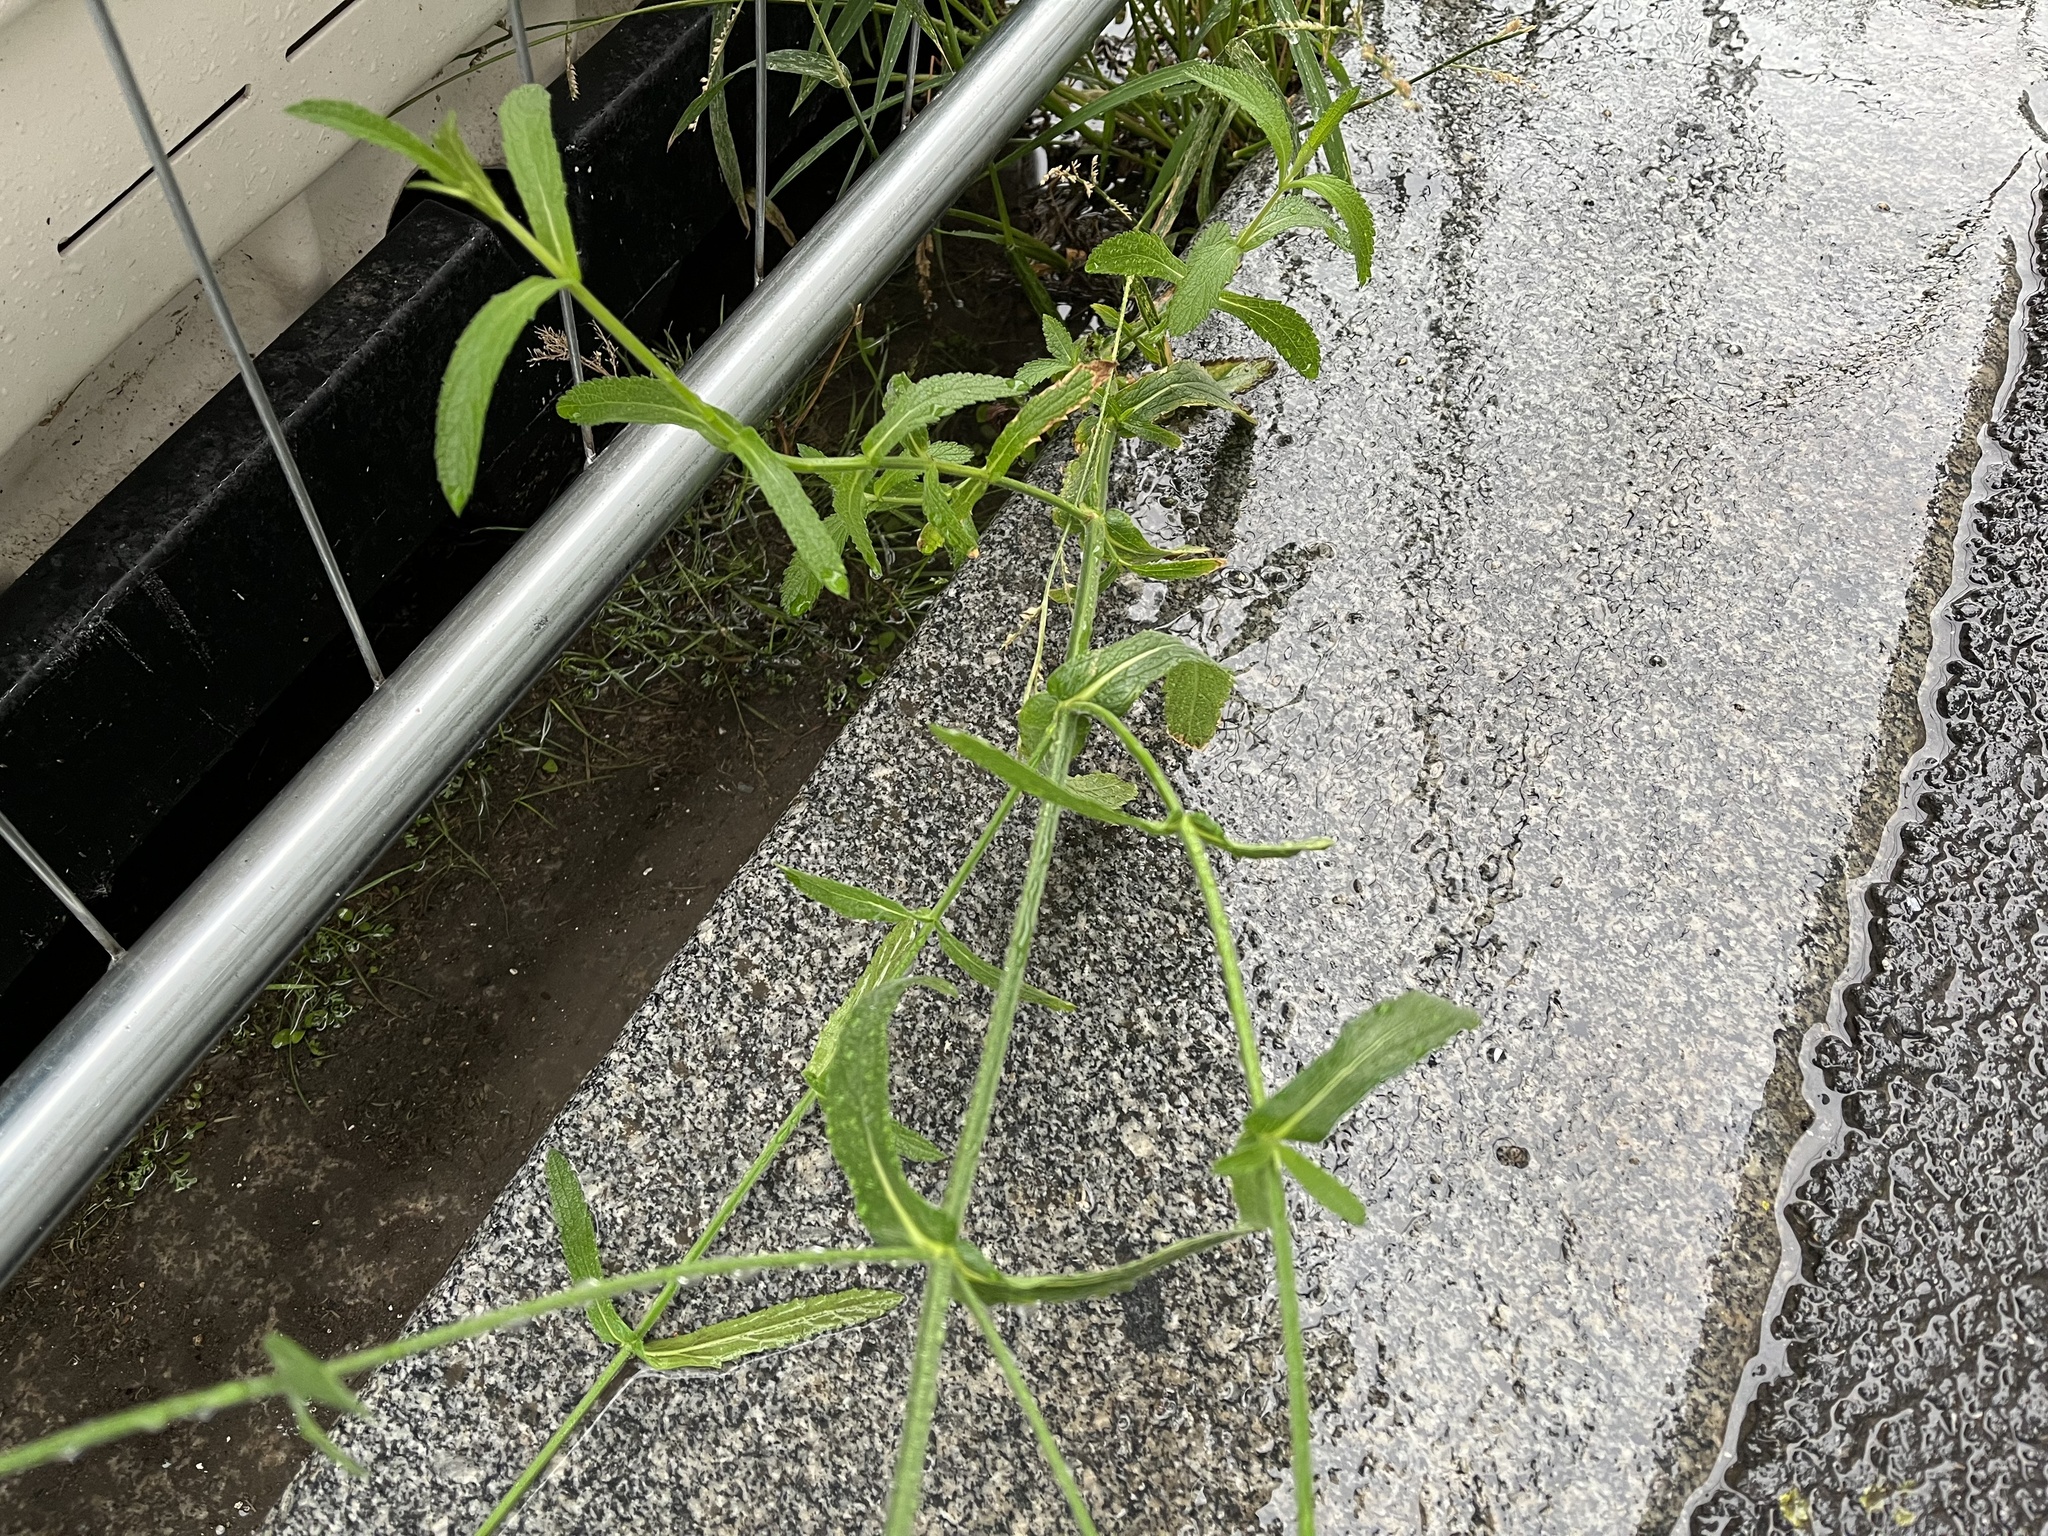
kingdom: Plantae
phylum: Tracheophyta
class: Magnoliopsida
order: Lamiales
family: Verbenaceae
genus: Verbena
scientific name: Verbena bonariensis
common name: Purpletop vervain
